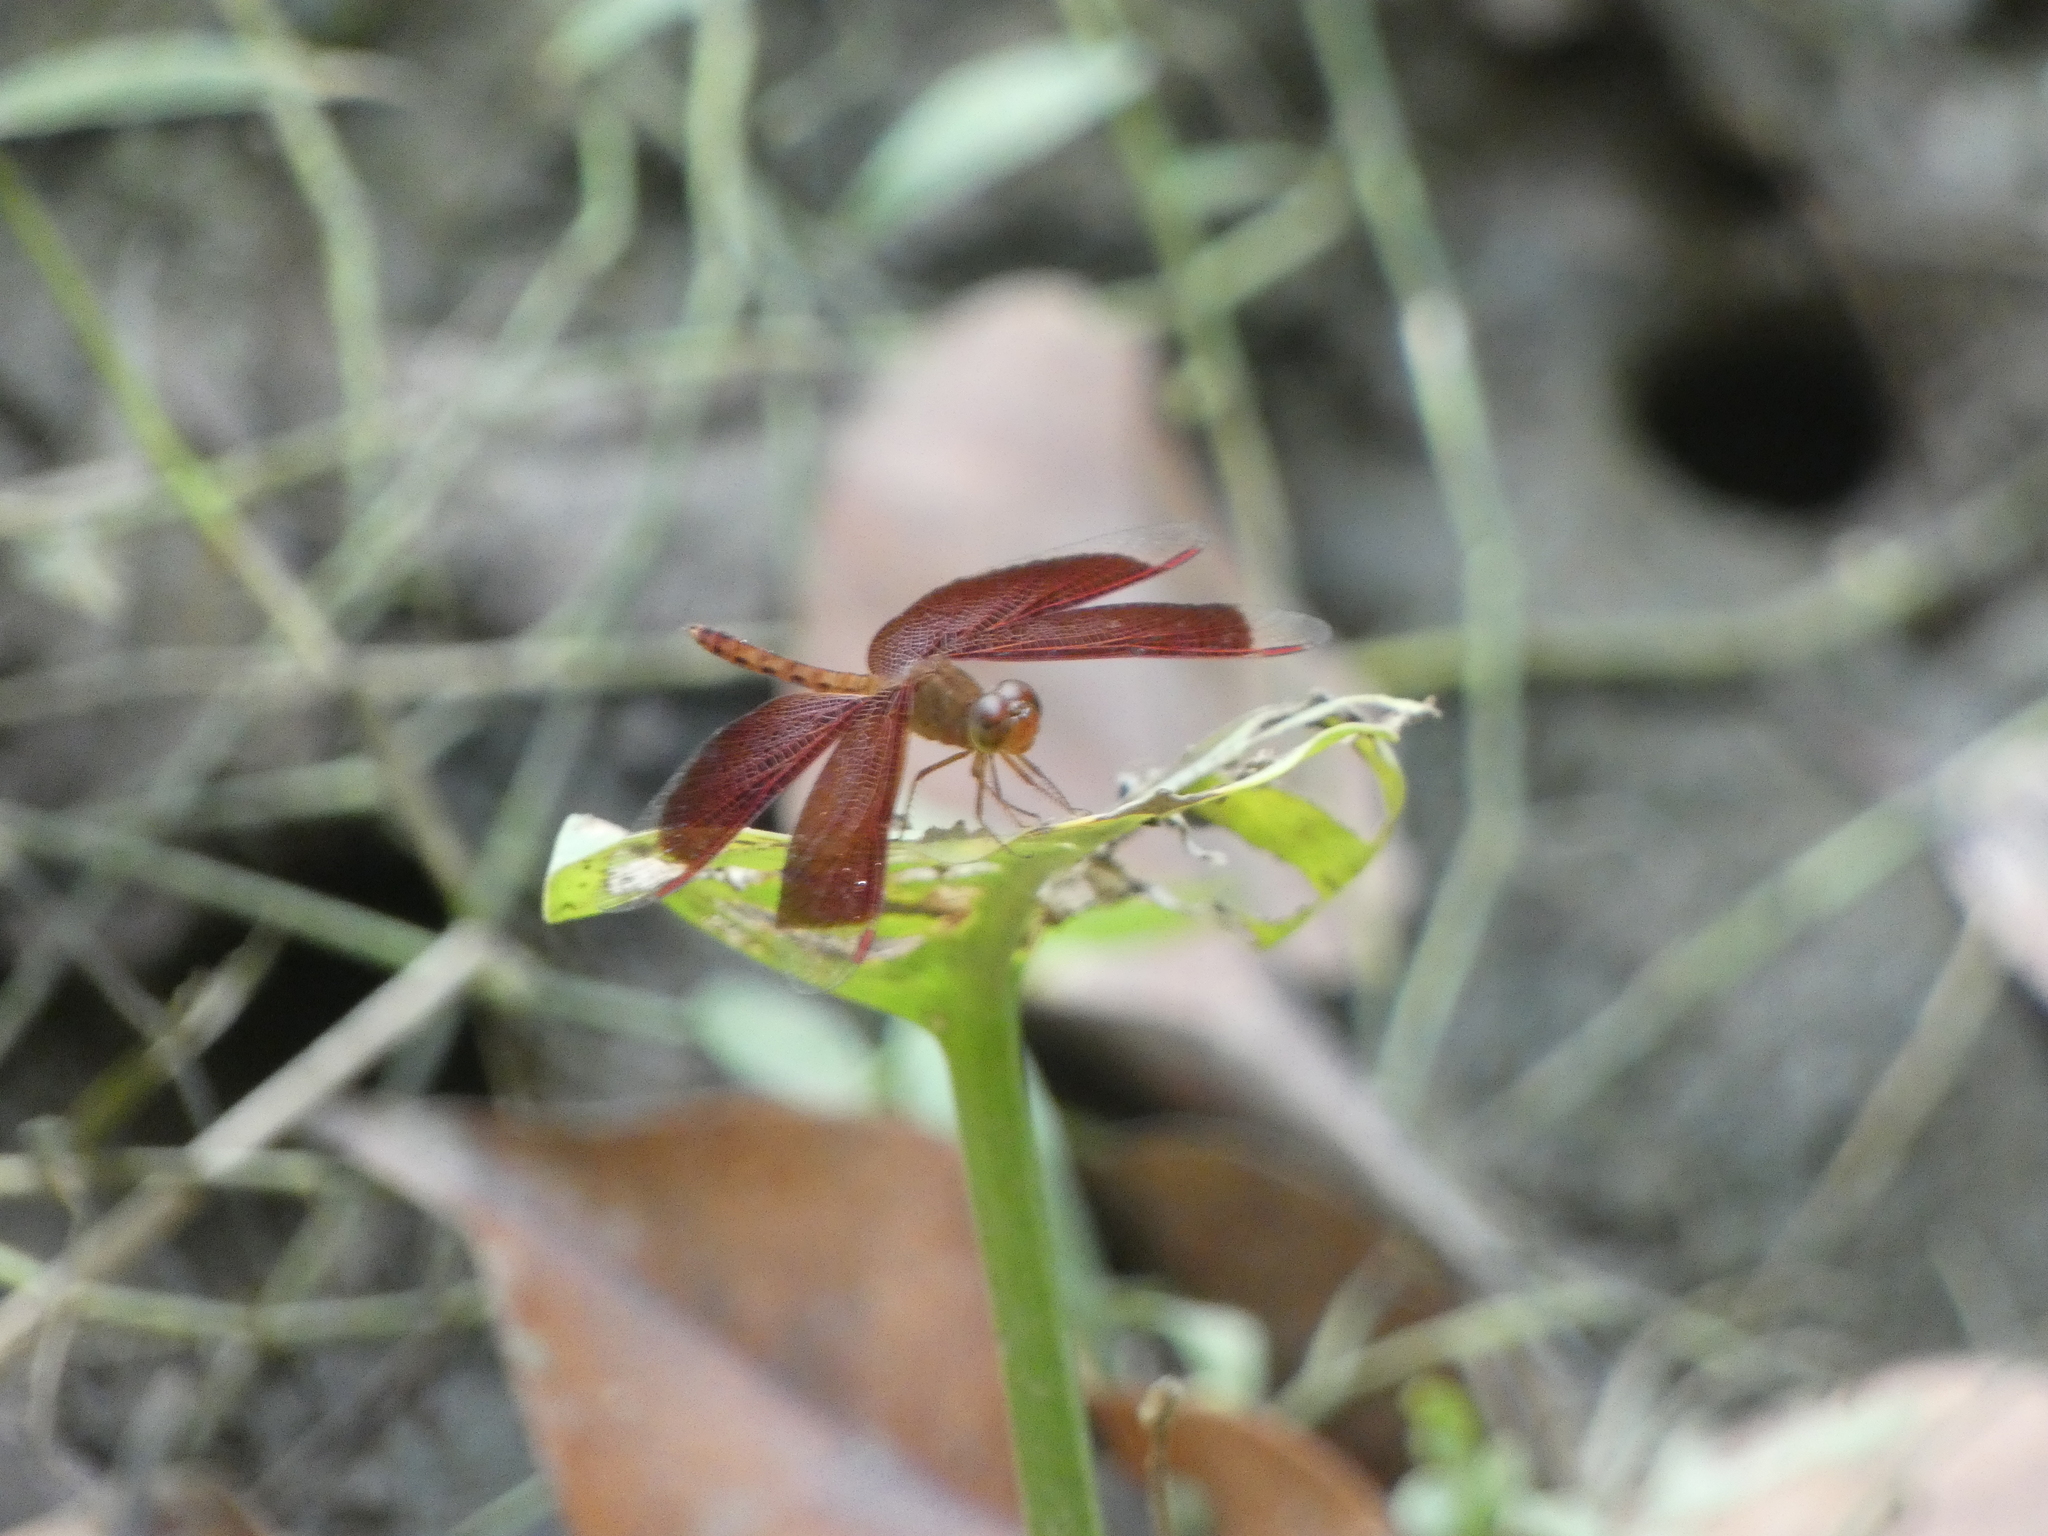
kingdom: Animalia
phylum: Arthropoda
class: Insecta
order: Odonata
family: Libellulidae
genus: Neurothemis
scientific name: Neurothemis fluctuans
